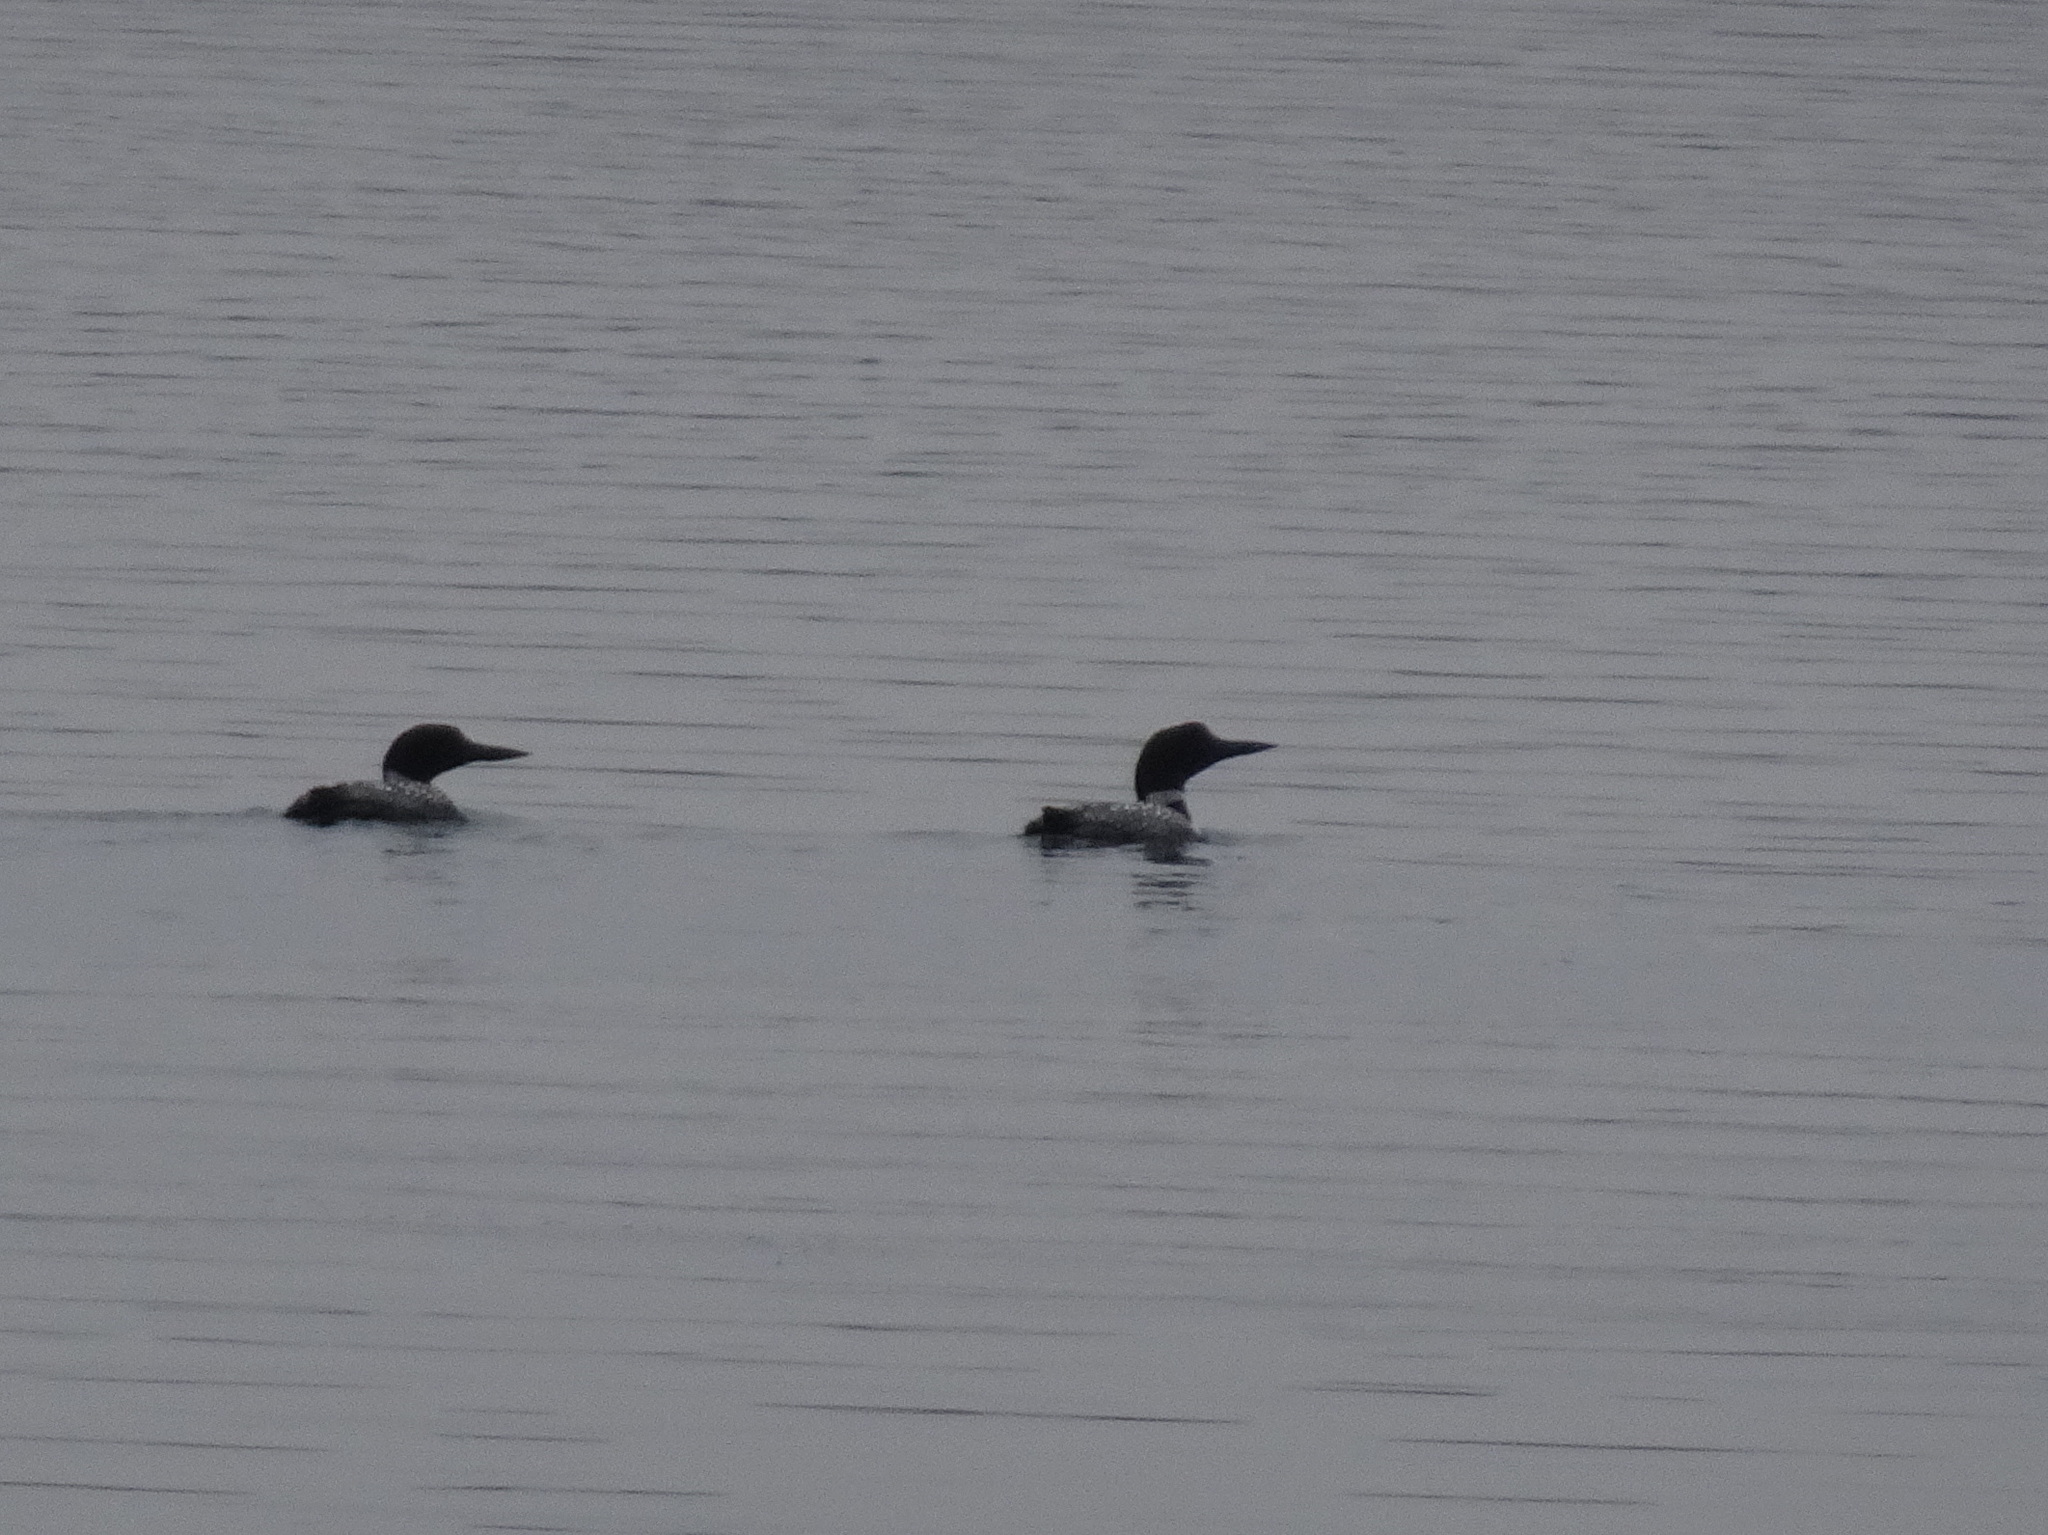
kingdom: Animalia
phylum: Chordata
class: Aves
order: Gaviiformes
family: Gaviidae
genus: Gavia
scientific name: Gavia immer
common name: Common loon
